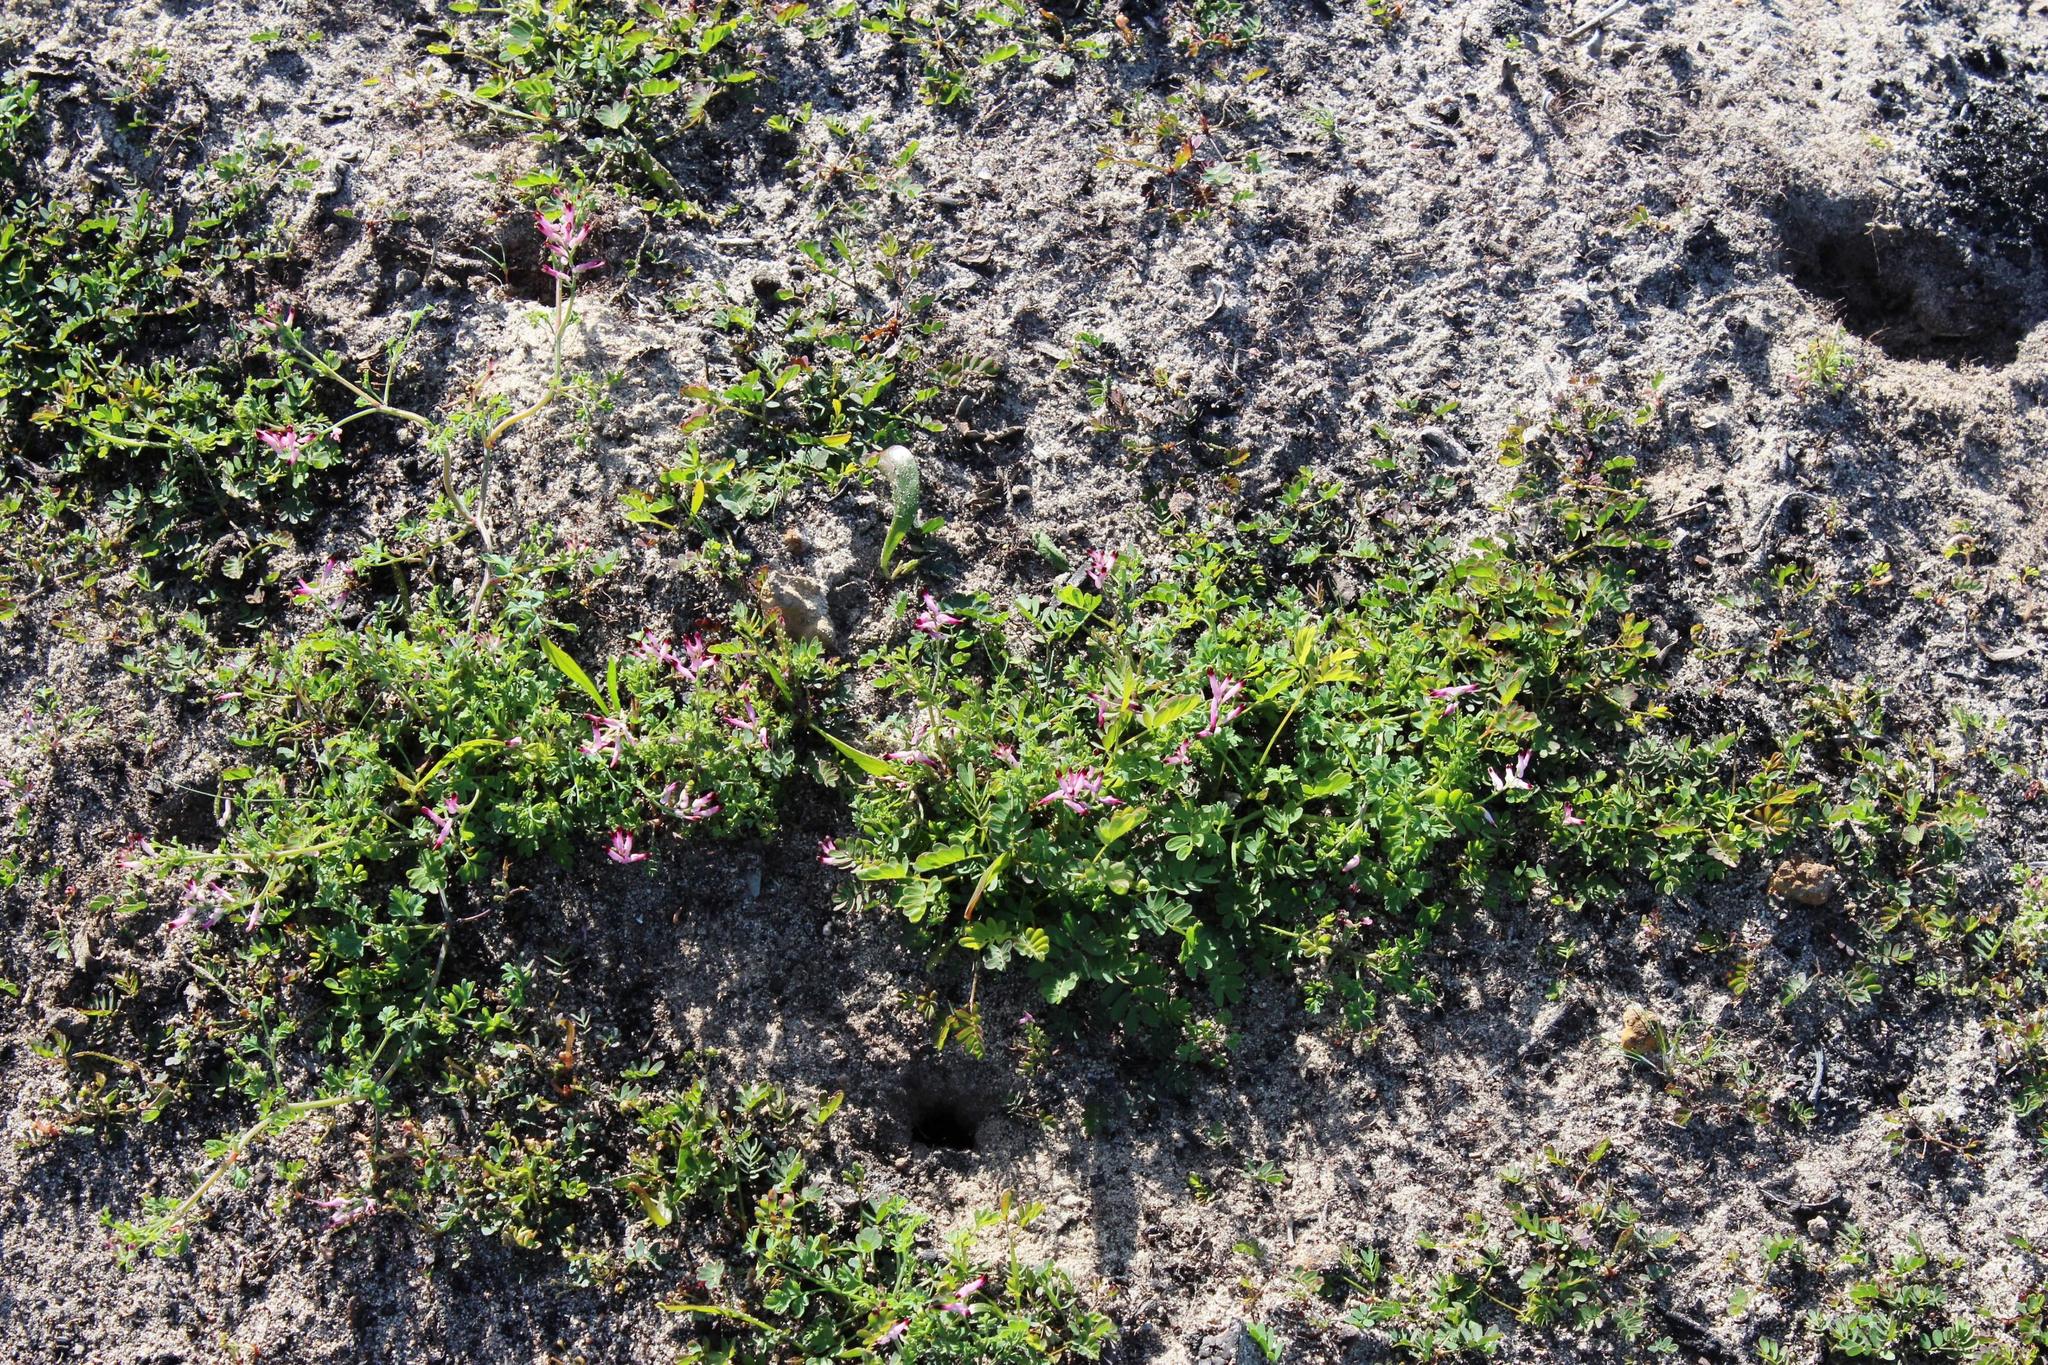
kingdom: Plantae
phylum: Tracheophyta
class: Magnoliopsida
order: Ranunculales
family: Papaveraceae
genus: Fumaria
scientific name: Fumaria muralis
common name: Common ramping-fumitory
